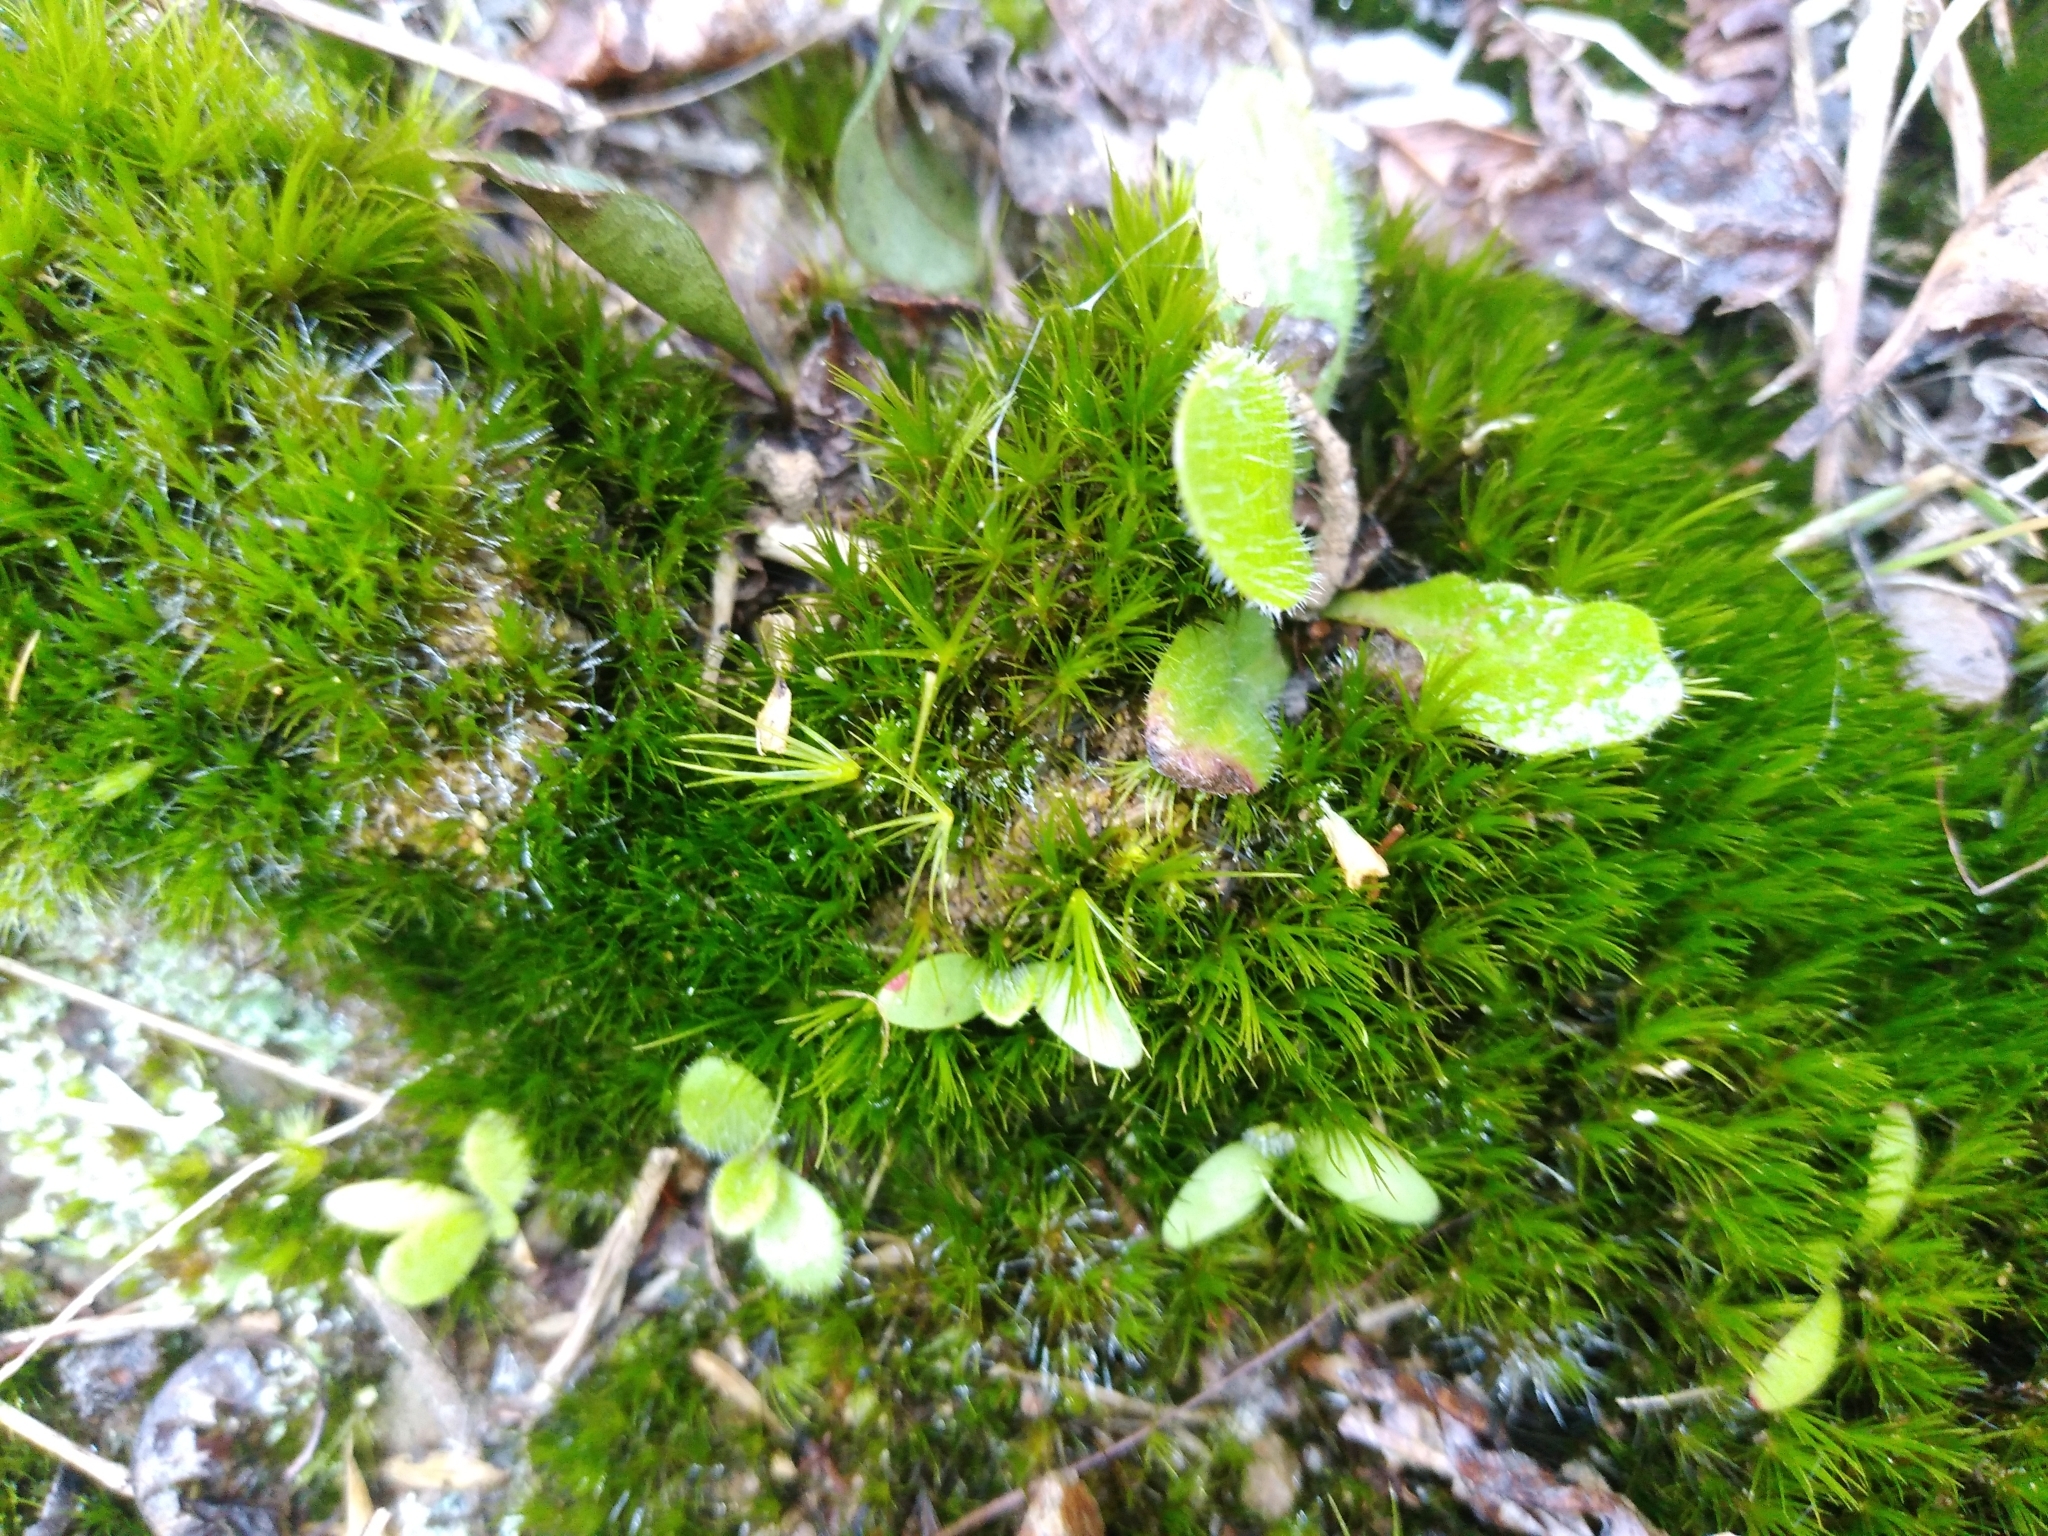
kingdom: Plantae
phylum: Bryophyta
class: Bryopsida
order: Dicranales
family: Leucobryaceae
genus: Campylopus
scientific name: Campylopus clavatus
